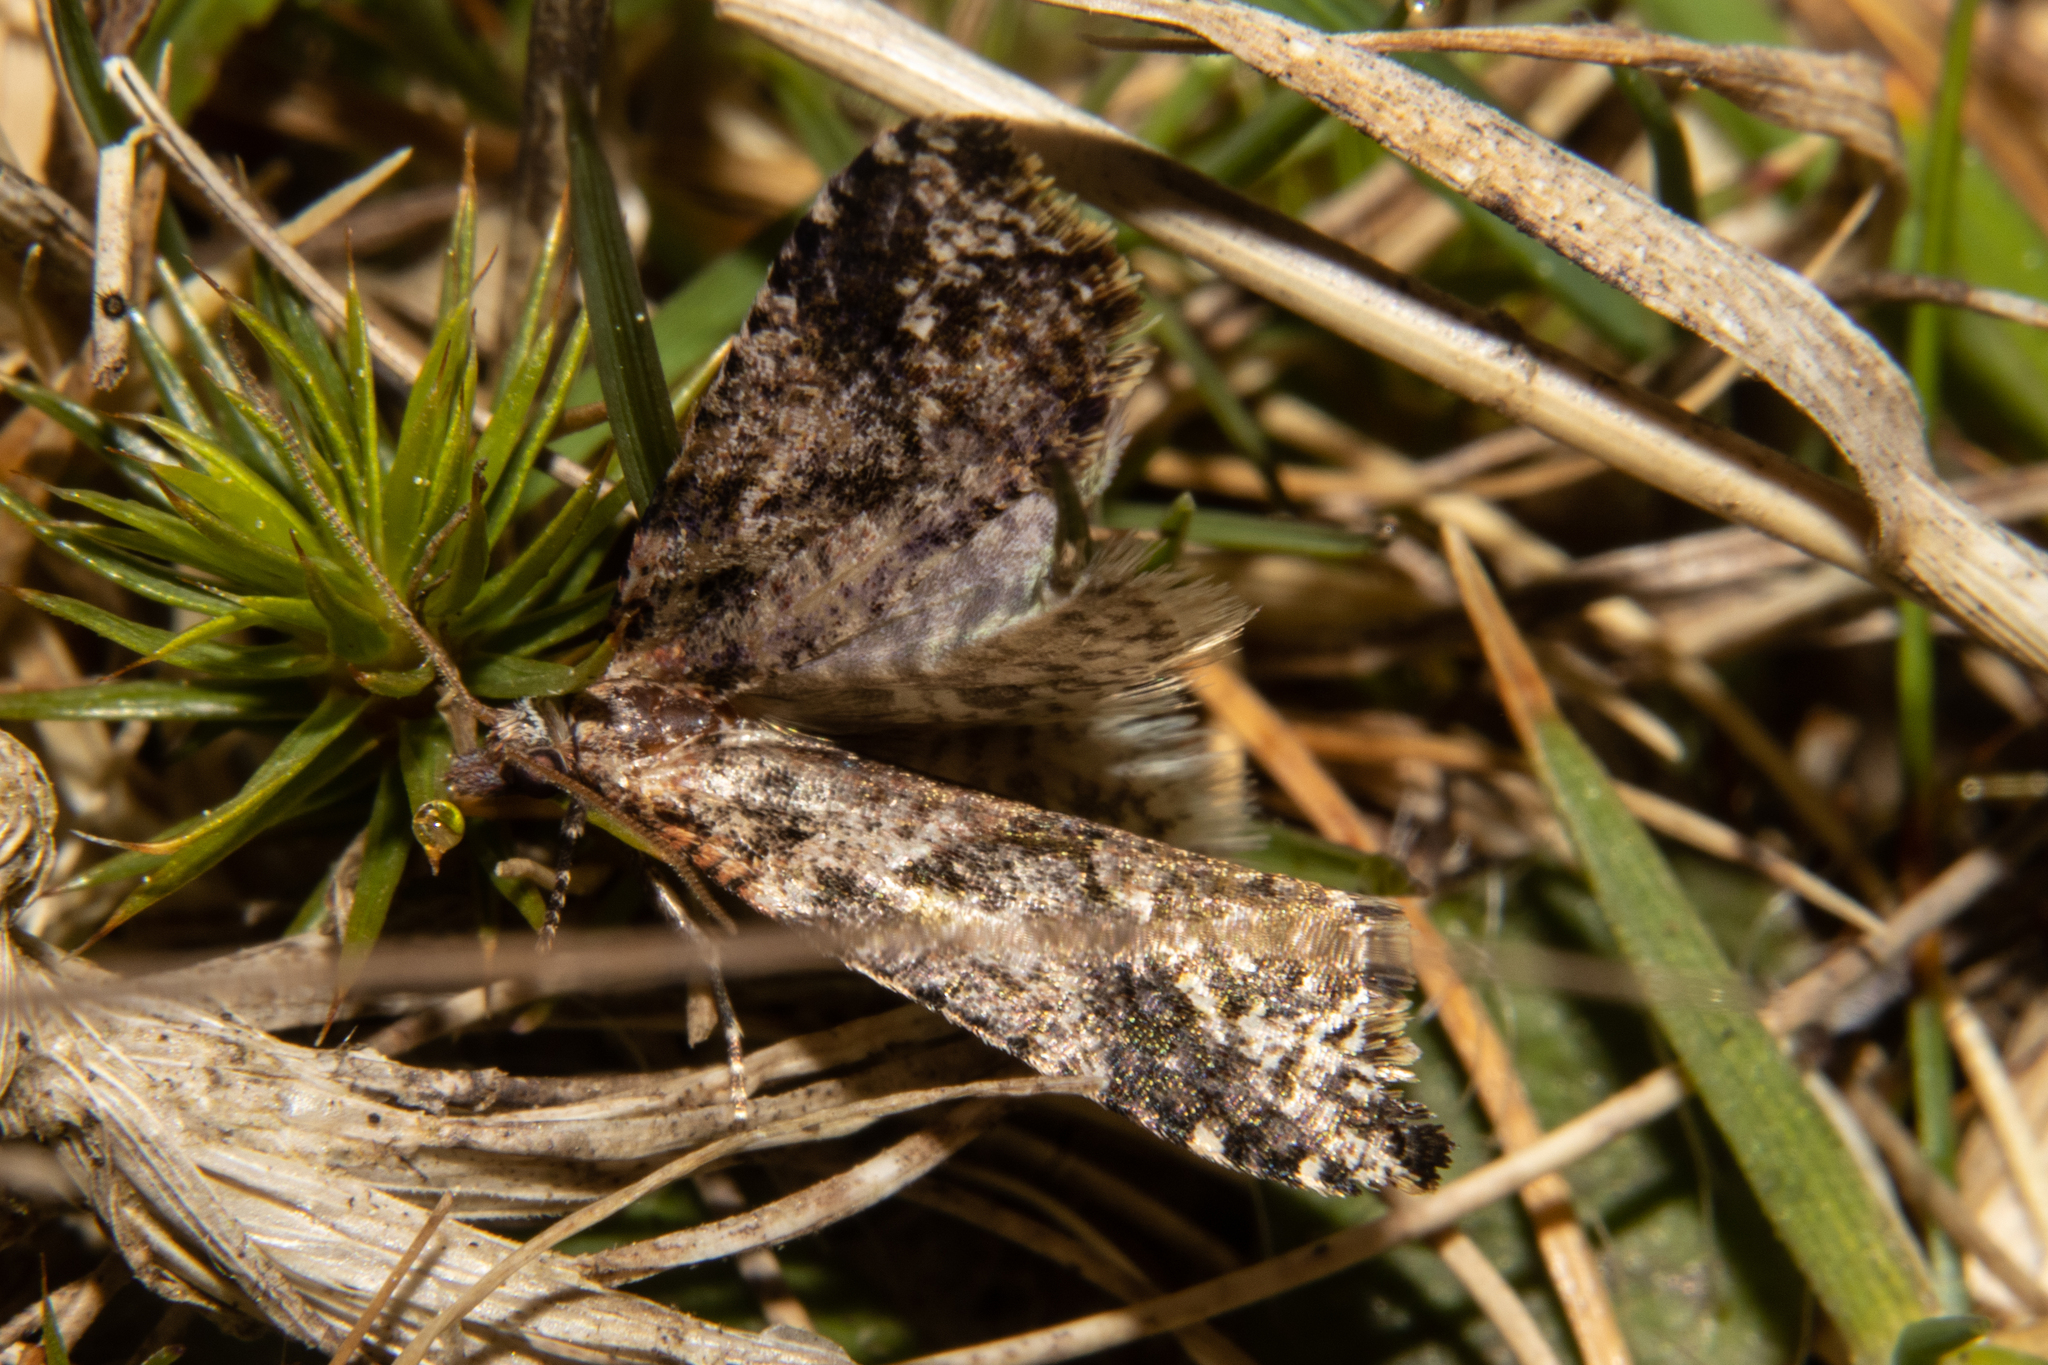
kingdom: Animalia
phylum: Arthropoda
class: Insecta
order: Lepidoptera
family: Tortricidae
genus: Pyrgotis
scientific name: Pyrgotis plagiatana
